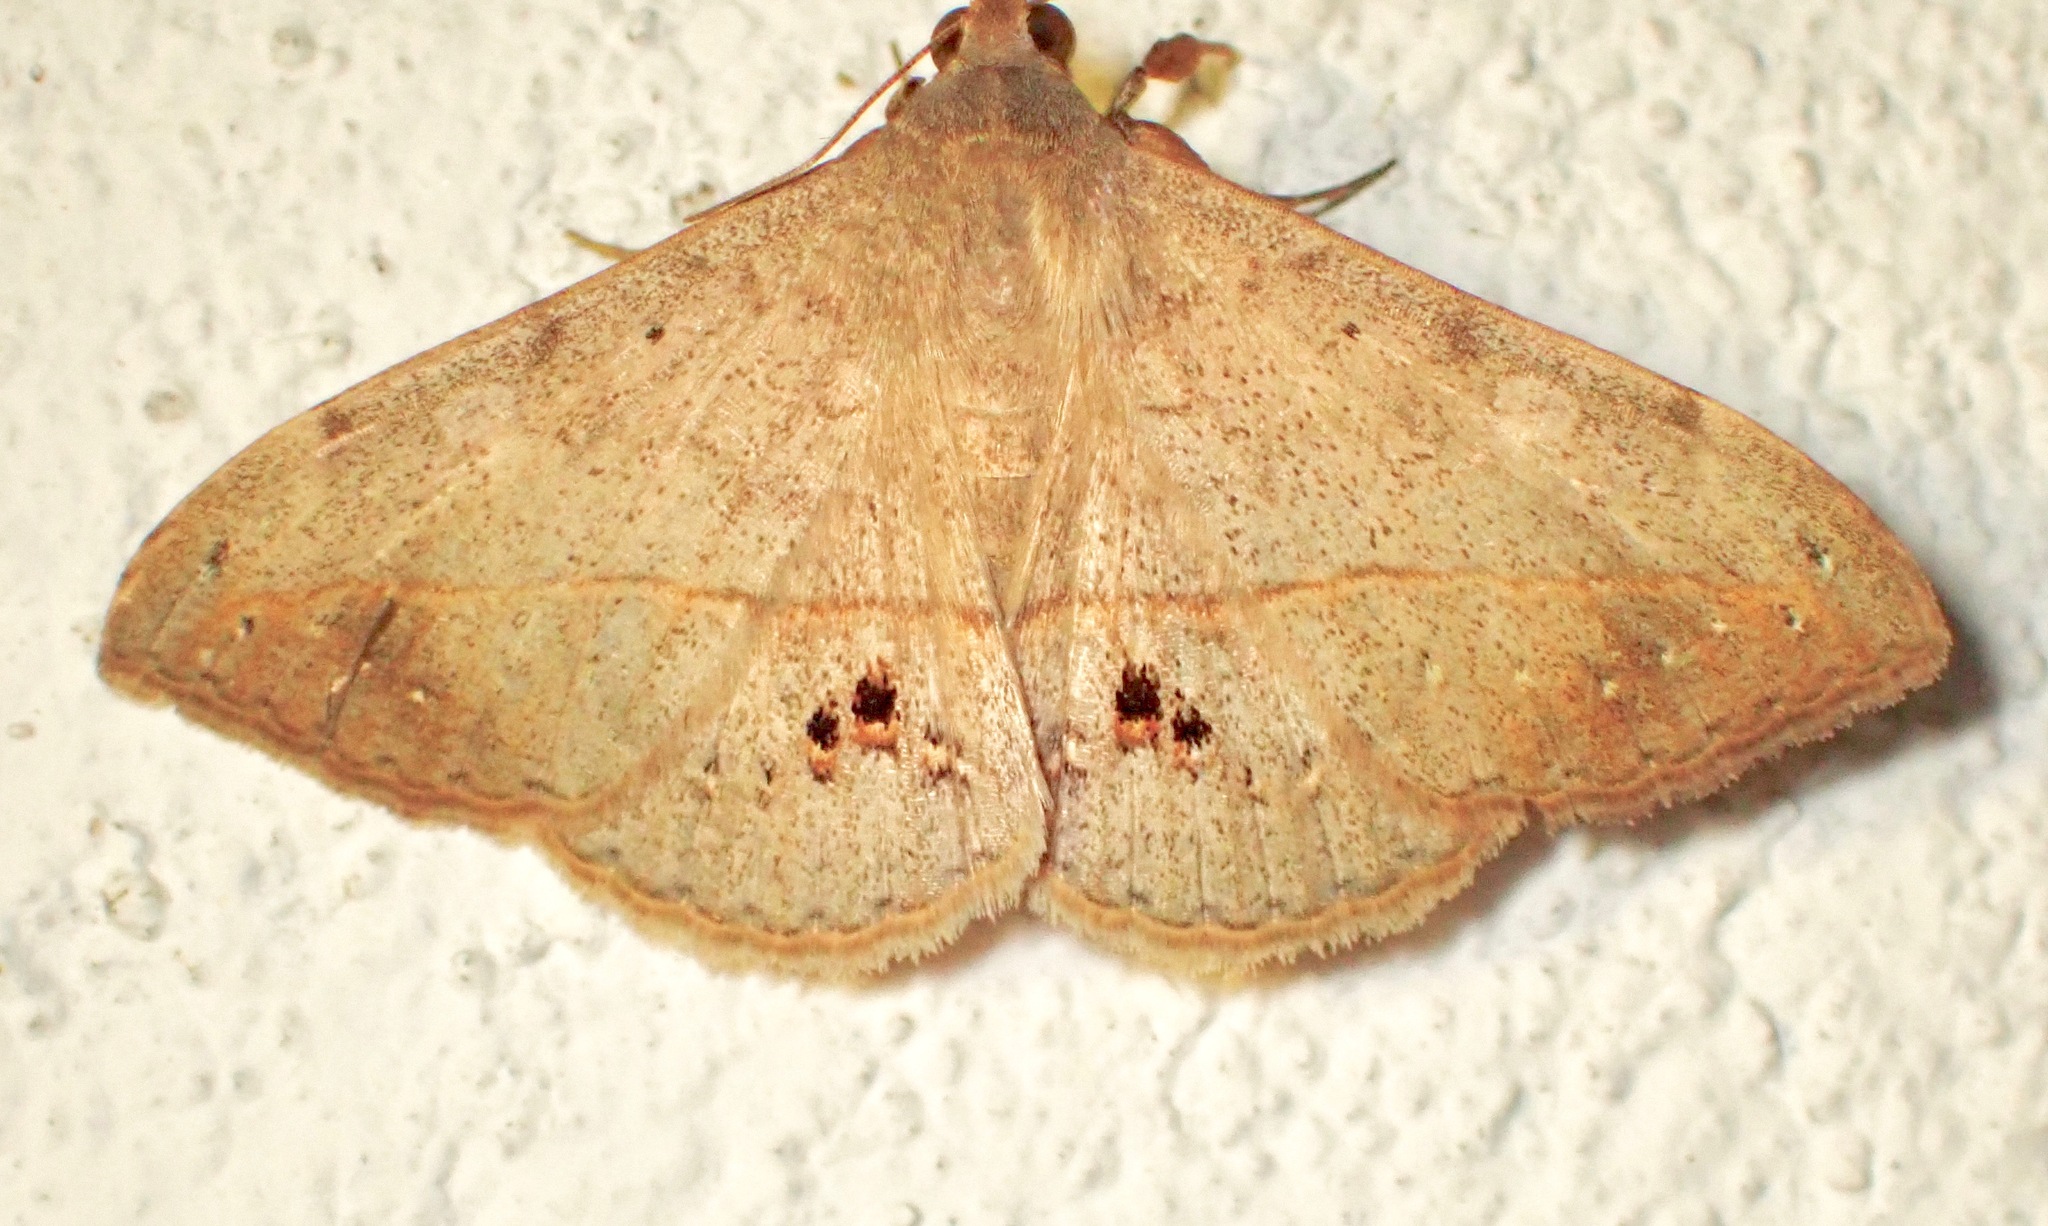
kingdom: Animalia
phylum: Arthropoda
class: Insecta
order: Lepidoptera
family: Erebidae
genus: Anticarsia
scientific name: Anticarsia gemmatalis
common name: Cutworm moth
